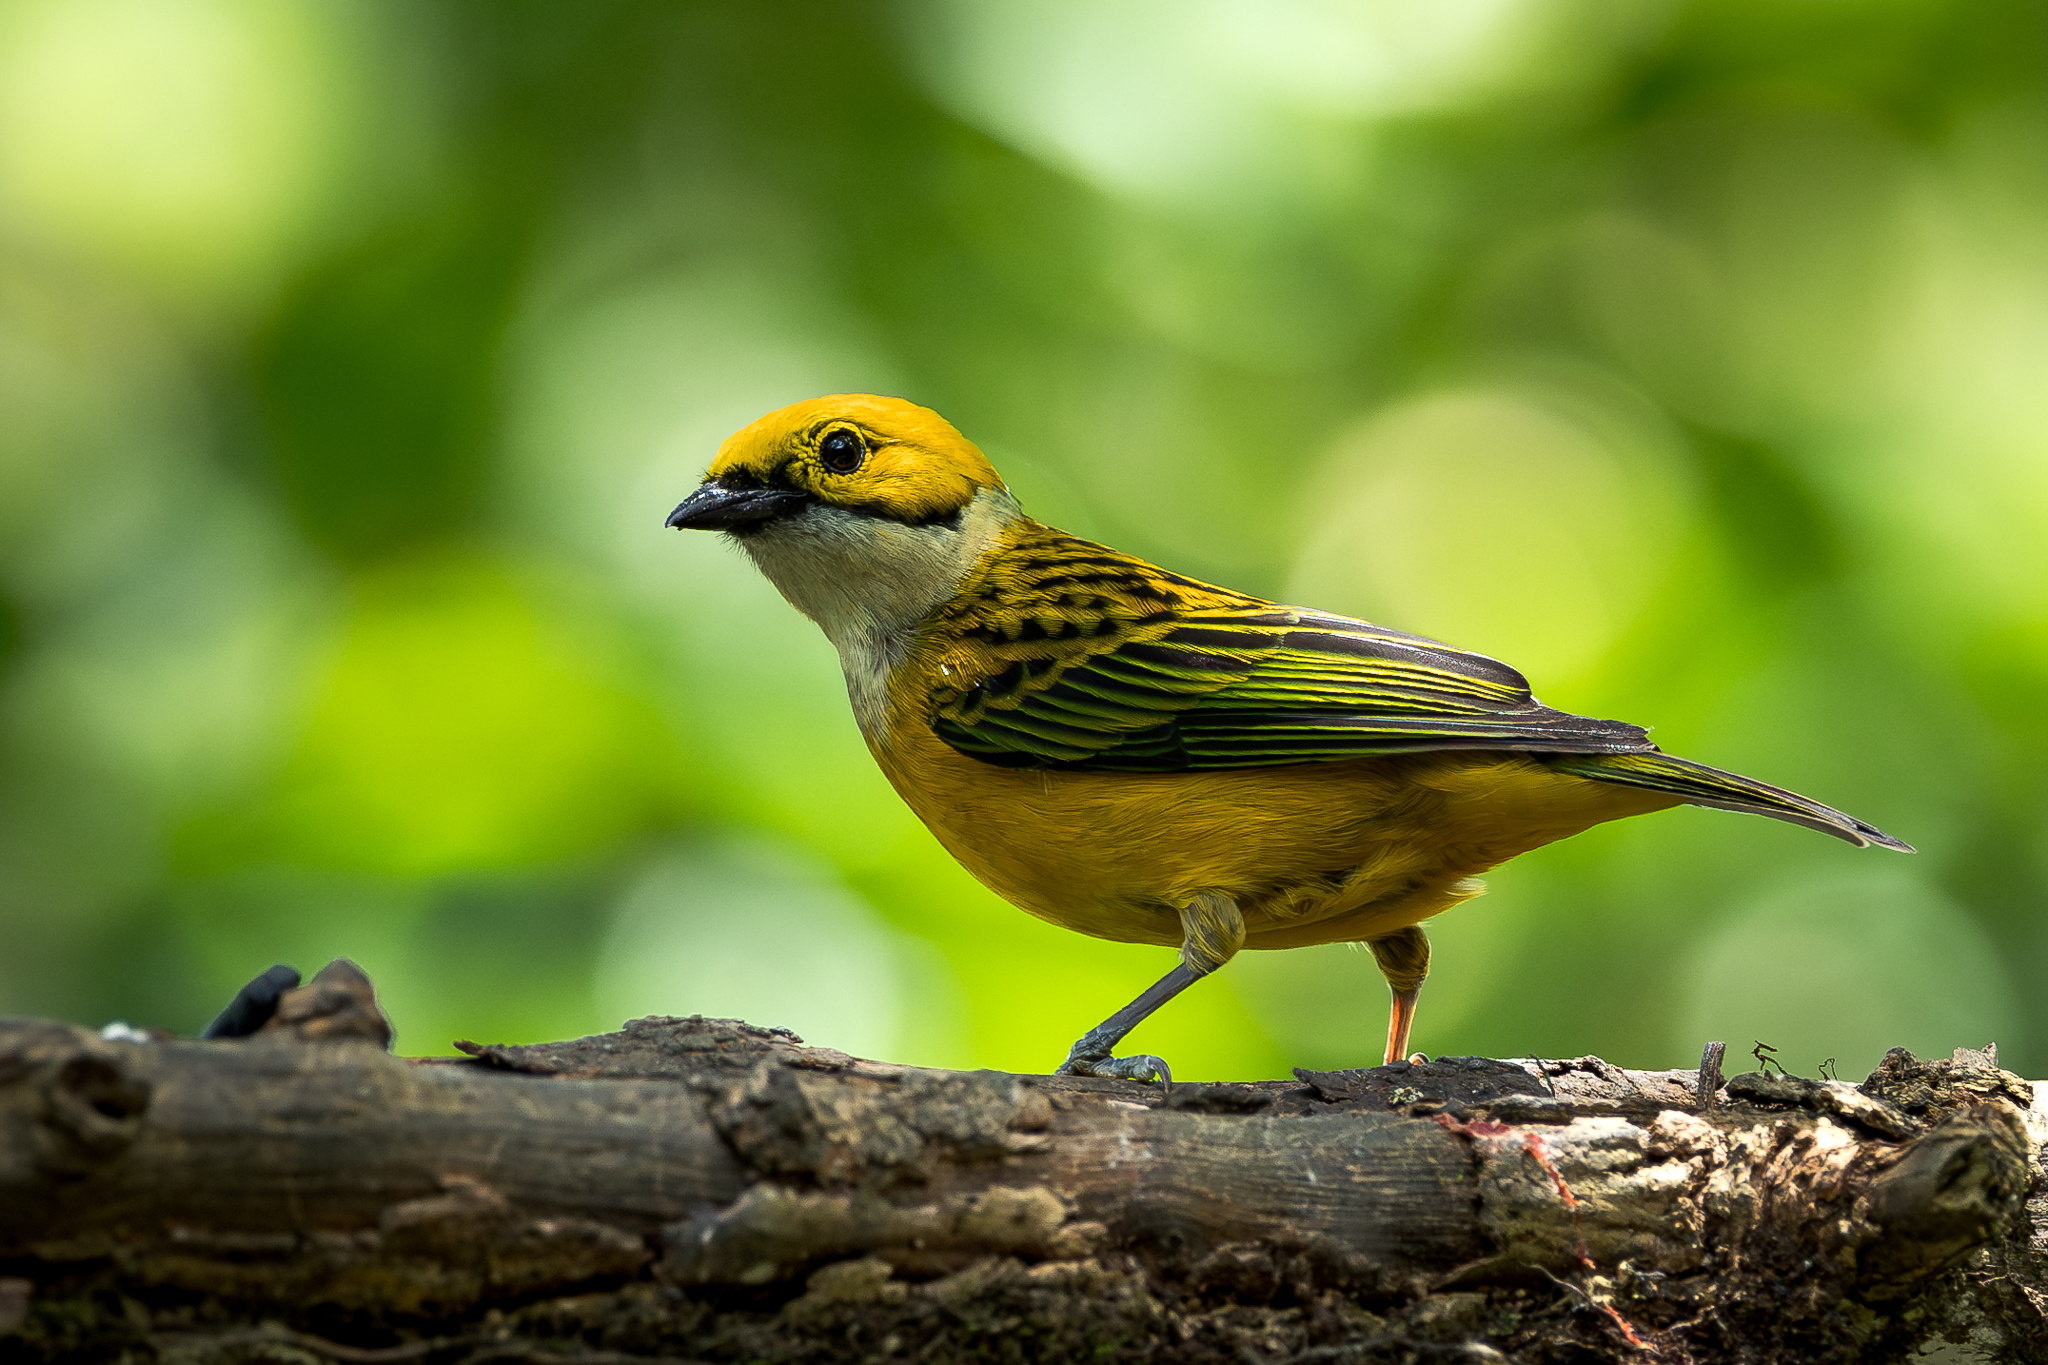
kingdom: Animalia
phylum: Chordata
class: Aves
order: Passeriformes
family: Thraupidae
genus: Tangara
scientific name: Tangara icterocephala
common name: Silver-throated tanager
